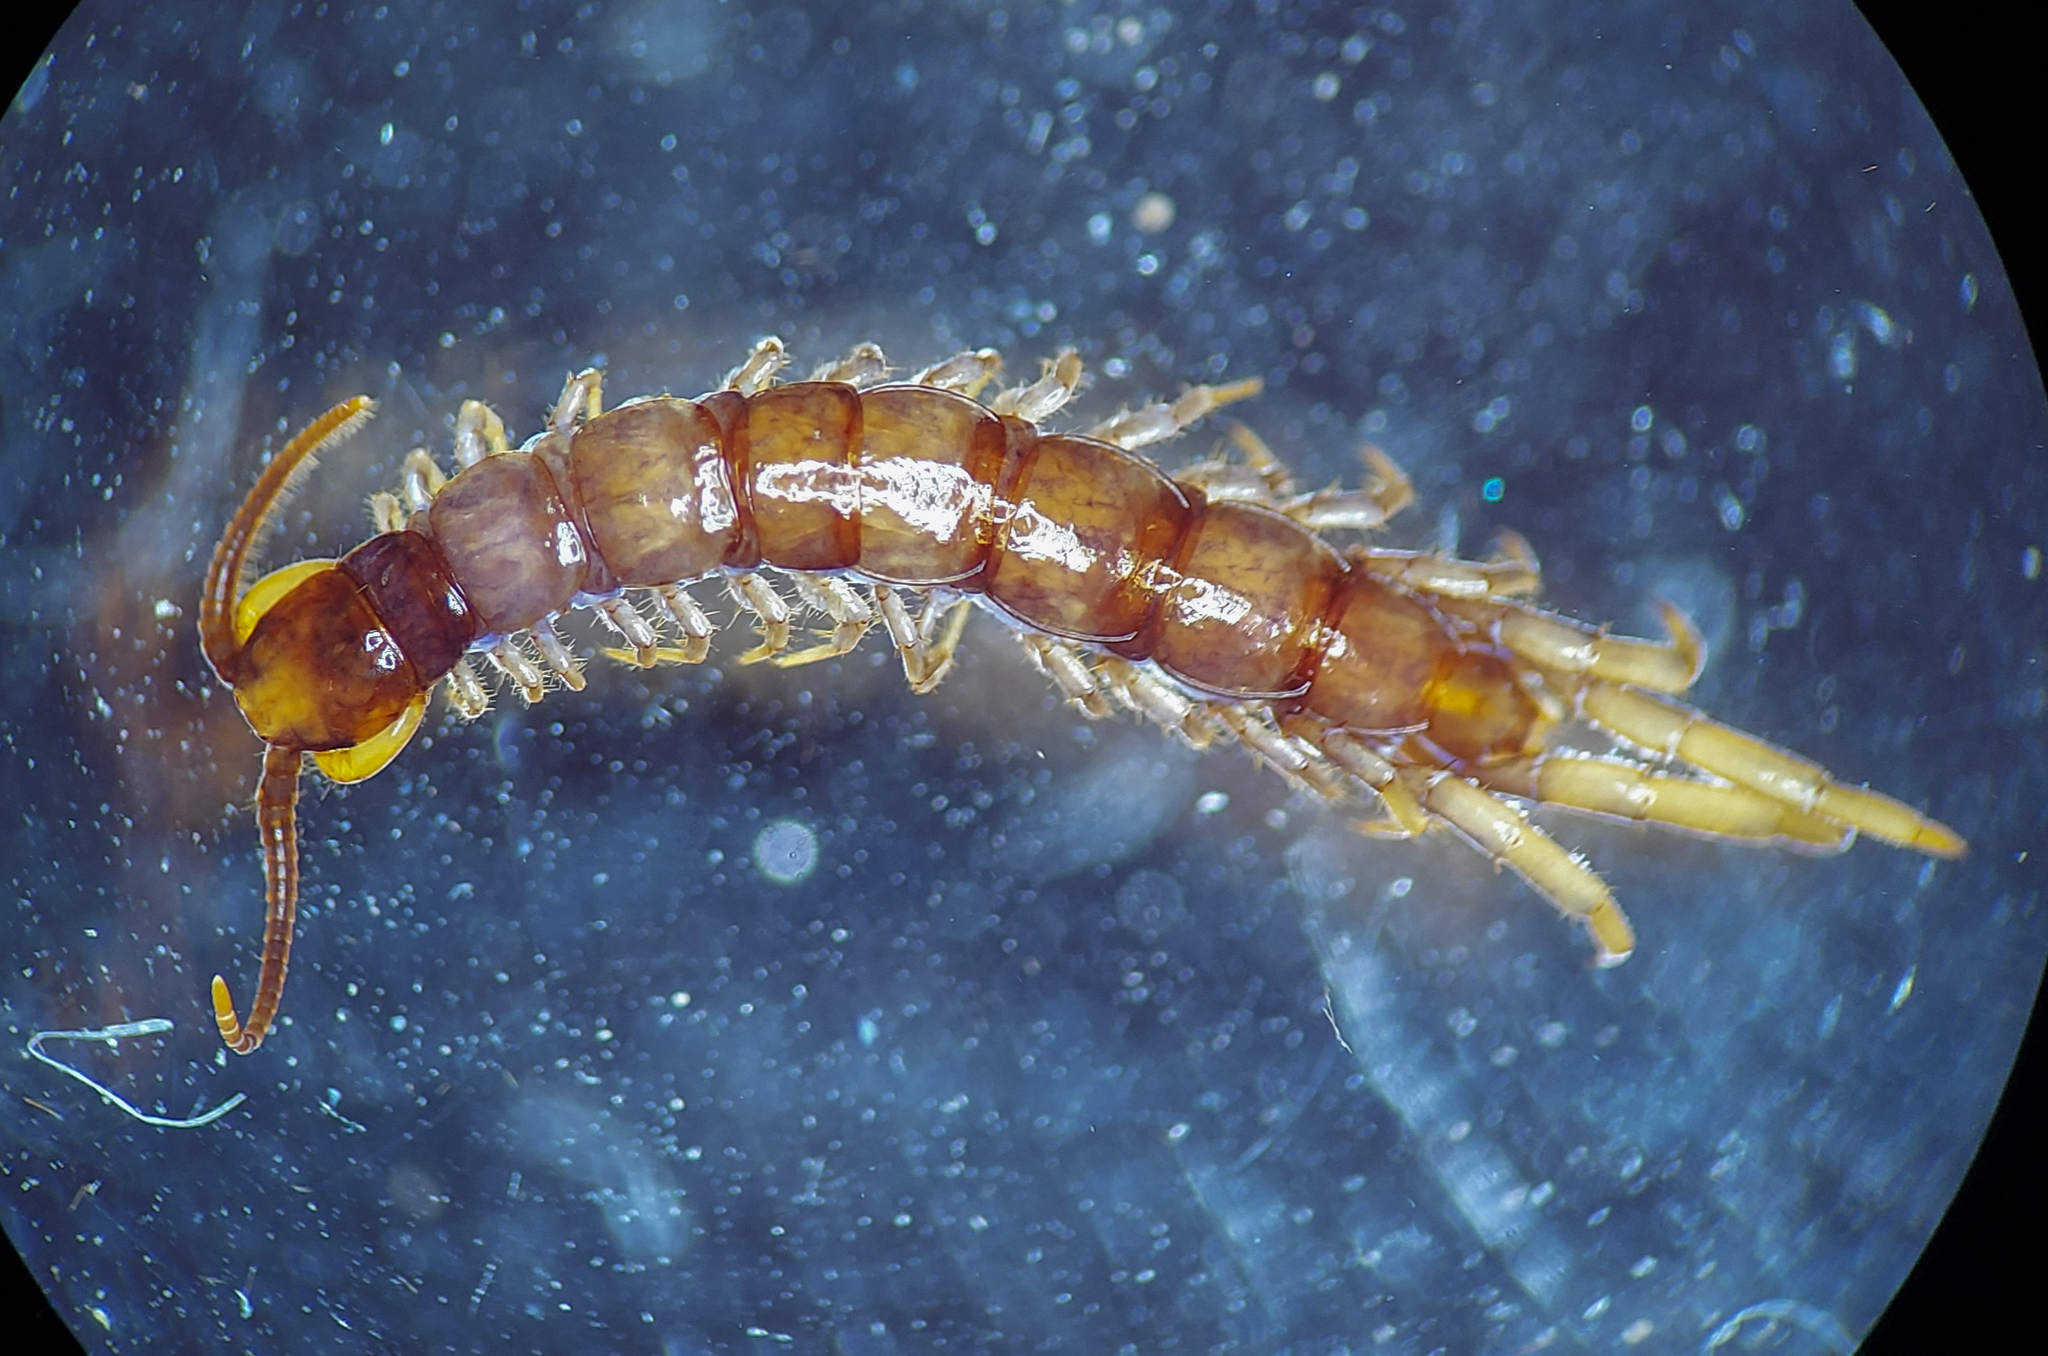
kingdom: Animalia
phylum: Arthropoda
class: Chilopoda
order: Lithobiomorpha
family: Lithobiidae
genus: Nadabius
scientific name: Nadabius pullus
